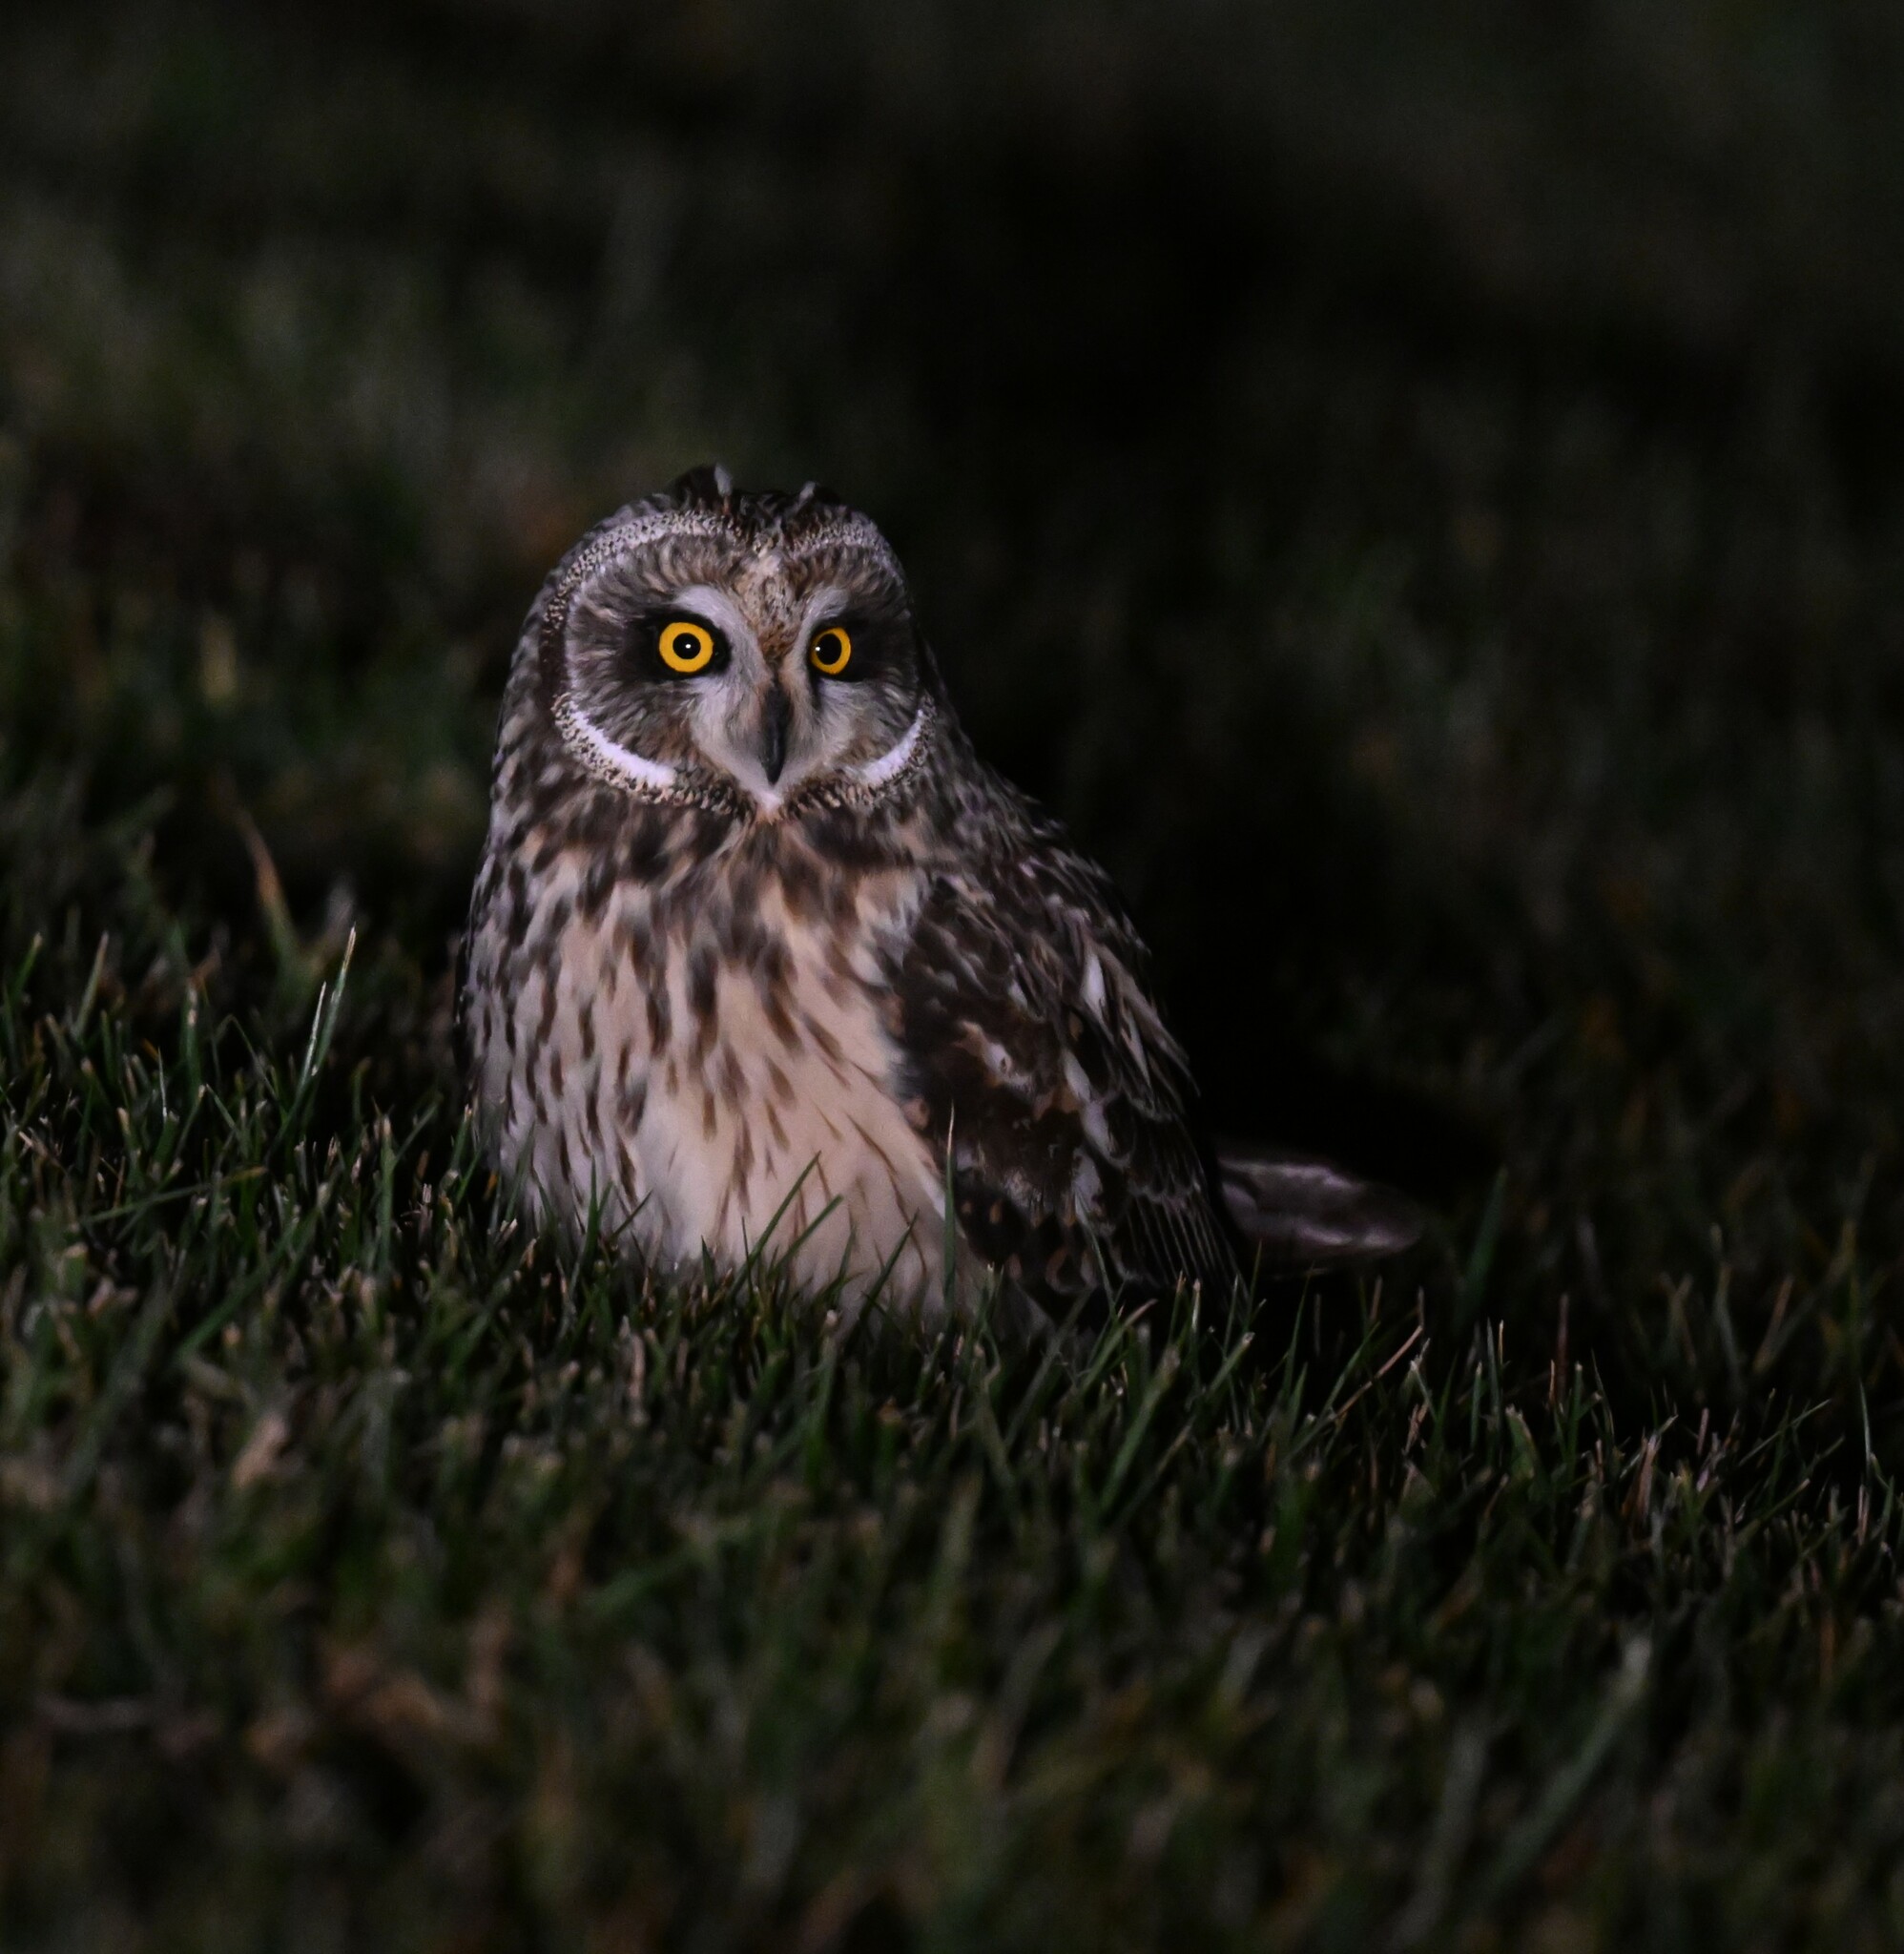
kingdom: Animalia
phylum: Chordata
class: Aves
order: Strigiformes
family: Strigidae
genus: Asio
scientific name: Asio flammeus
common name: Short-eared owl
